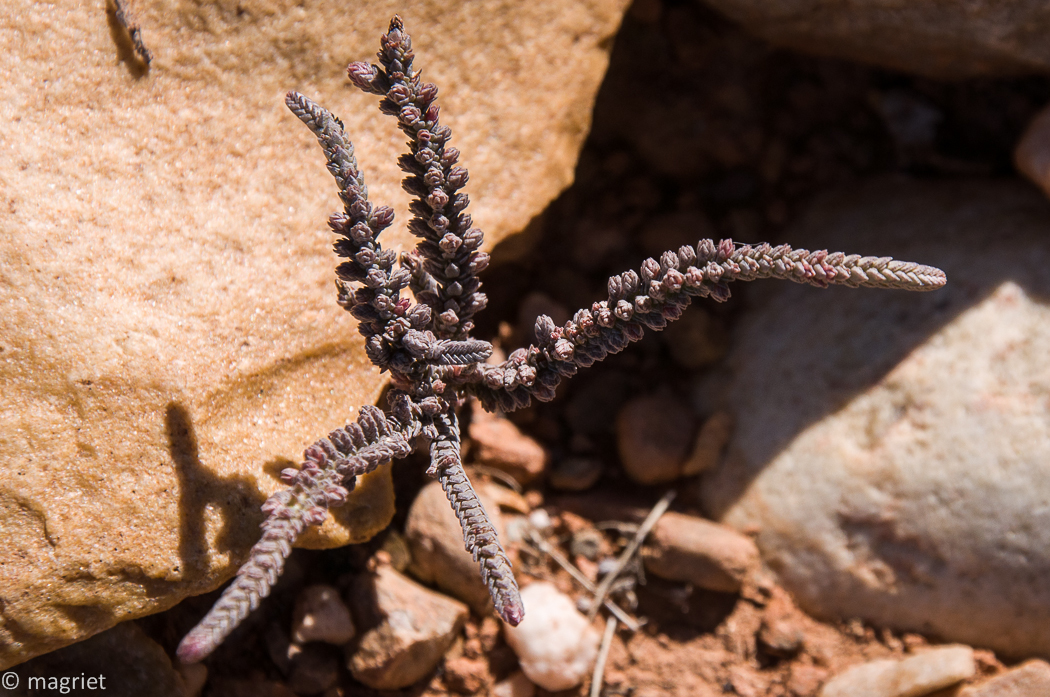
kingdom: Plantae
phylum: Tracheophyta
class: Magnoliopsida
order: Saxifragales
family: Crassulaceae
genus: Crassula
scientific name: Crassula muscosa
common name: Toy-cypress
